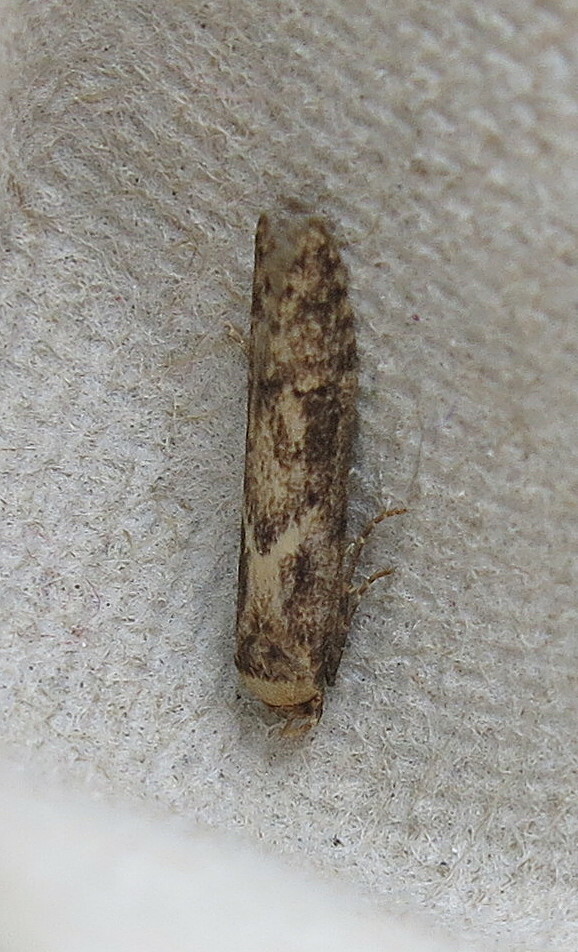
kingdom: Animalia
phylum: Arthropoda
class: Insecta
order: Lepidoptera
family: Blastobasidae
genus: Blastobasis
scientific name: Blastobasis adustella
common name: Dingy dowd
